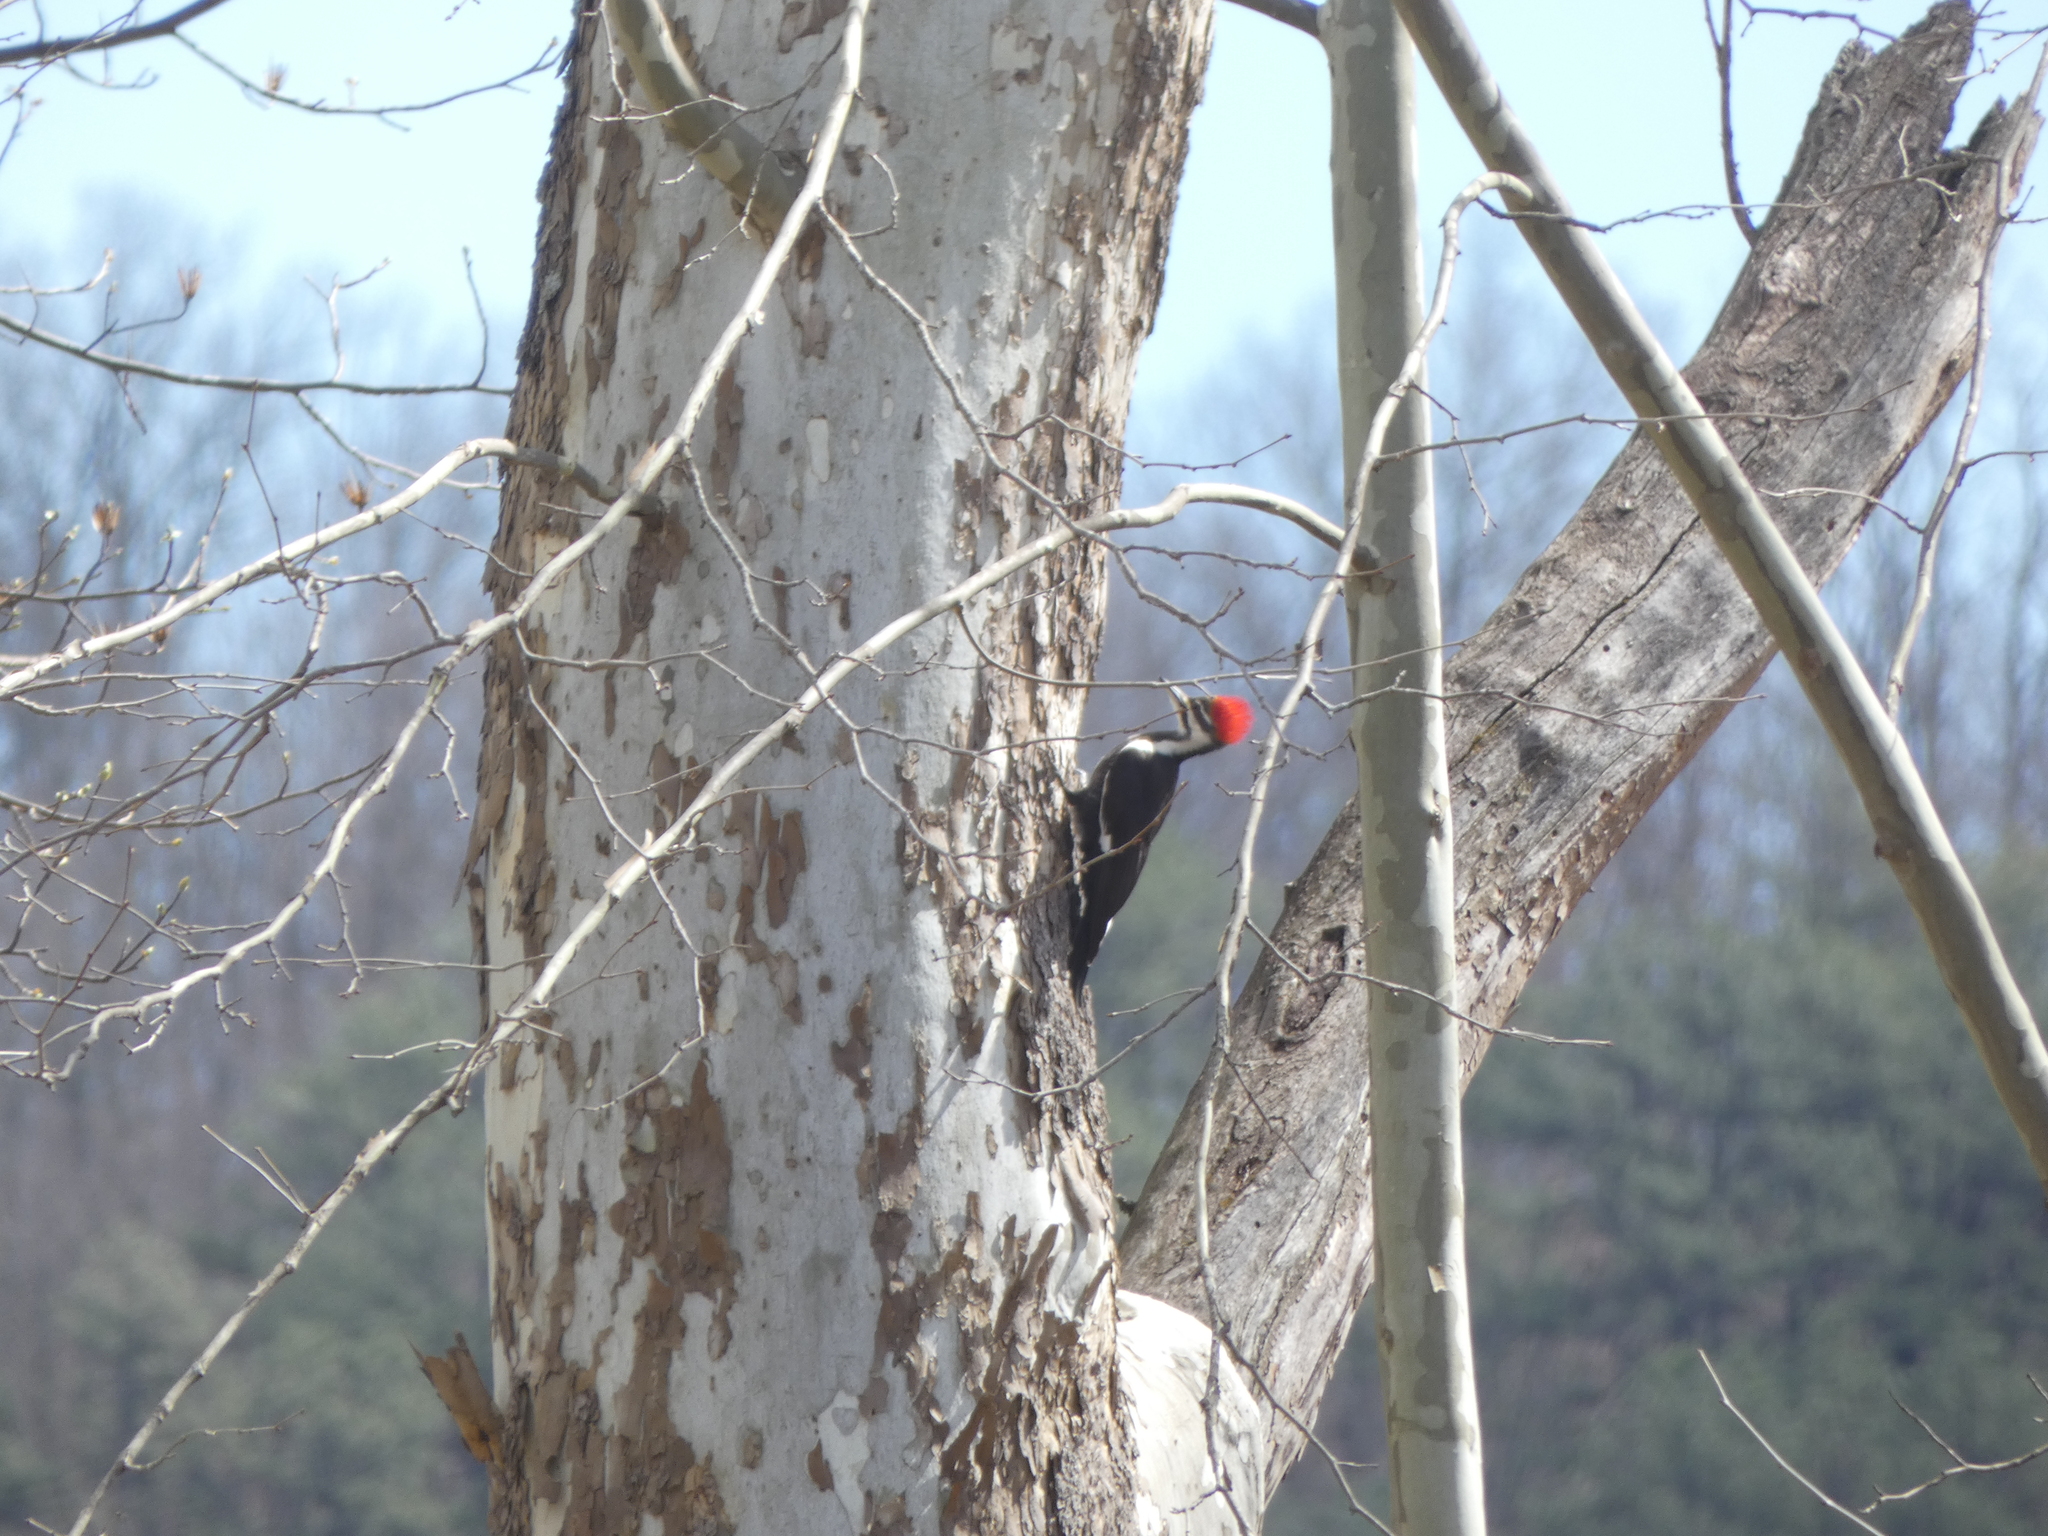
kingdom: Animalia
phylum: Chordata
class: Aves
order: Piciformes
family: Picidae
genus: Dryocopus
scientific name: Dryocopus pileatus
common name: Pileated woodpecker
